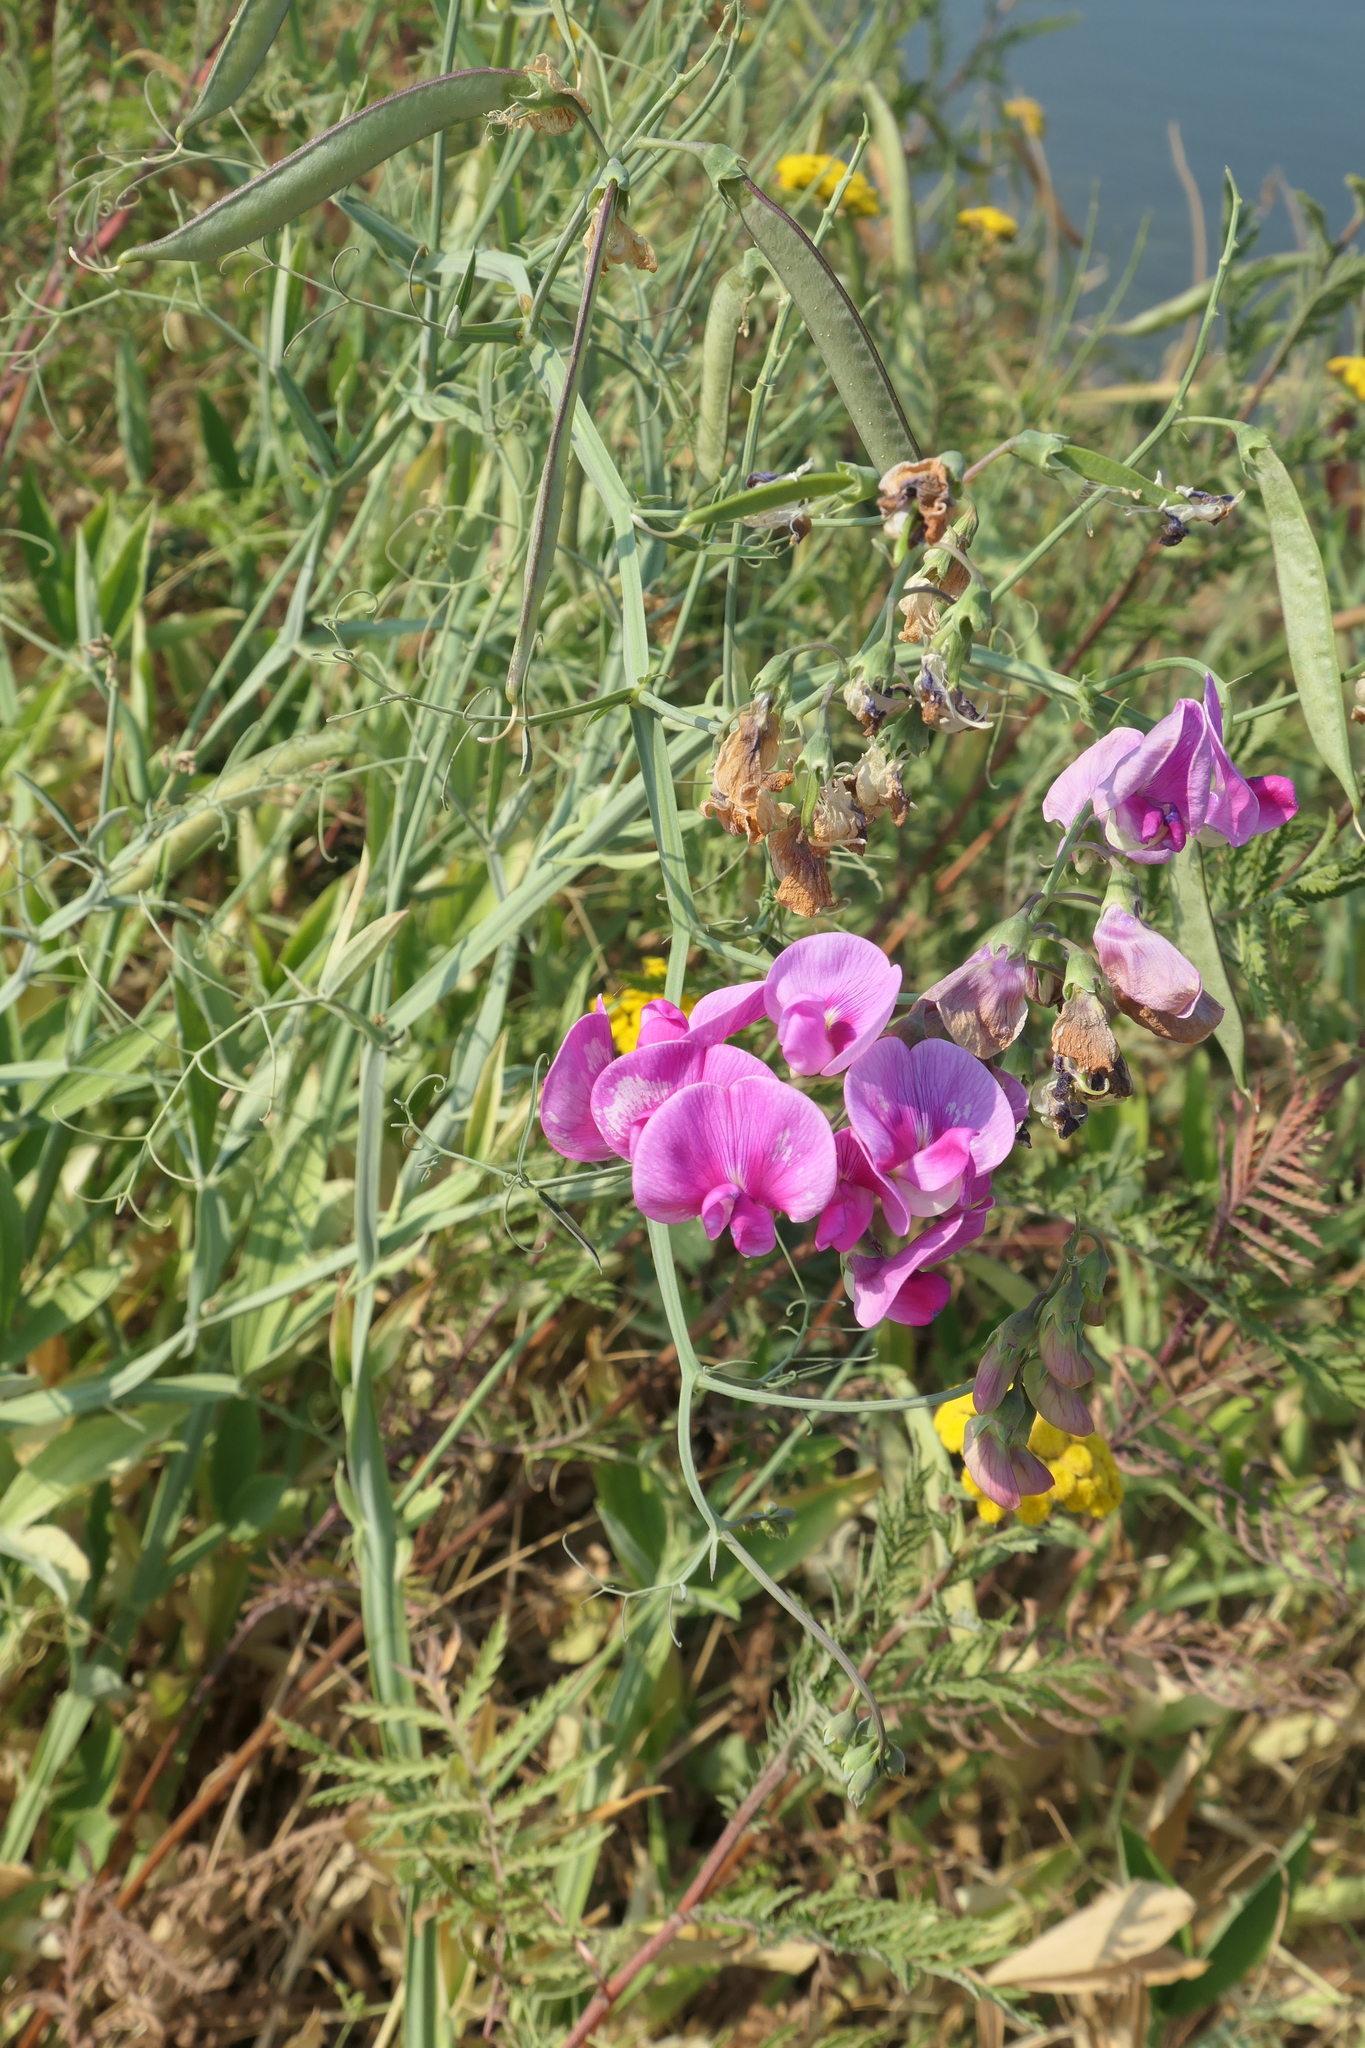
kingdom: Plantae
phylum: Tracheophyta
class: Magnoliopsida
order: Fabales
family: Fabaceae
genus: Lathyrus
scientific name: Lathyrus latifolius
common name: Perennial pea
